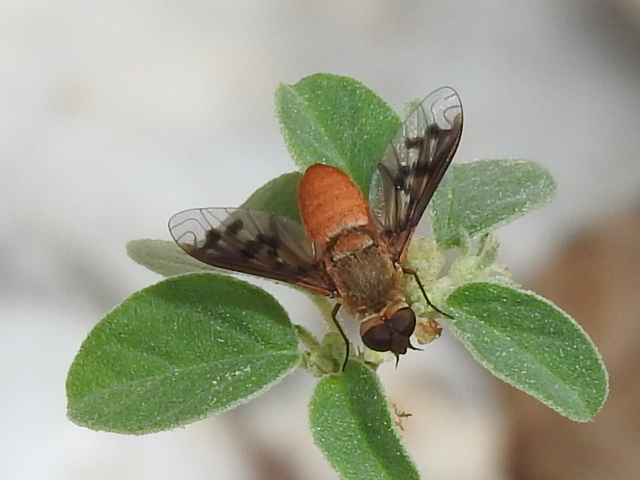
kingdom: Animalia
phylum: Arthropoda
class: Insecta
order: Diptera
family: Bombyliidae
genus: Neodiplocampta
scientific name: Neodiplocampta miranda
